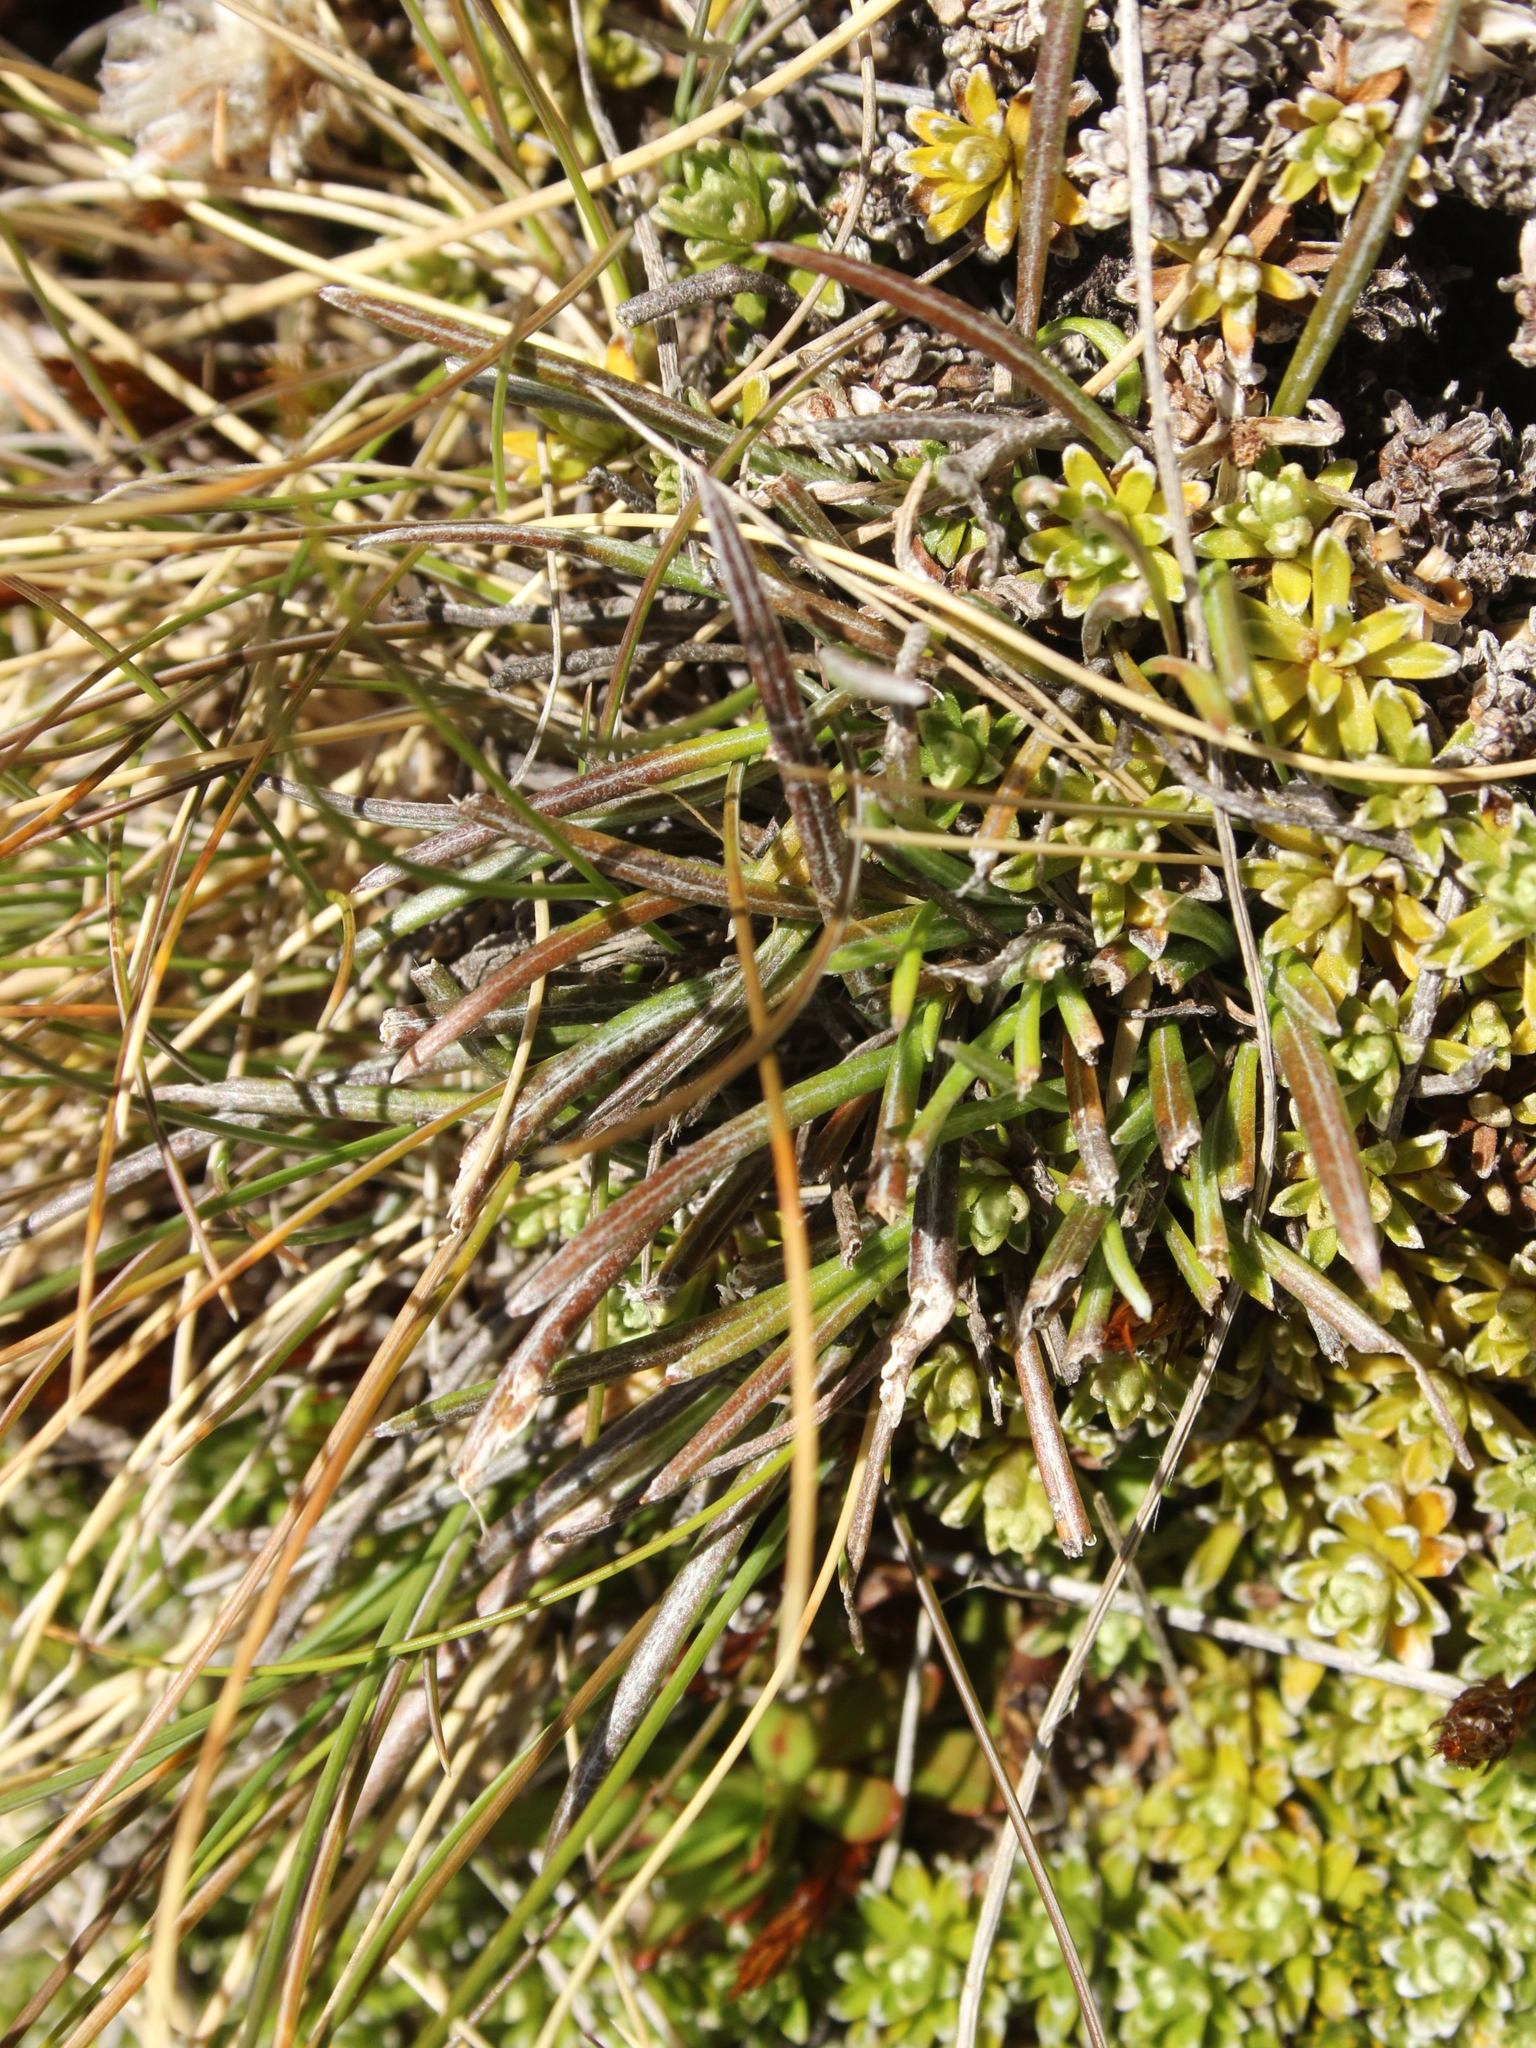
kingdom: Plantae
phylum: Tracheophyta
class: Magnoliopsida
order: Asterales
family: Asteraceae
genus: Celmisia
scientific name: Celmisia gracilenta
